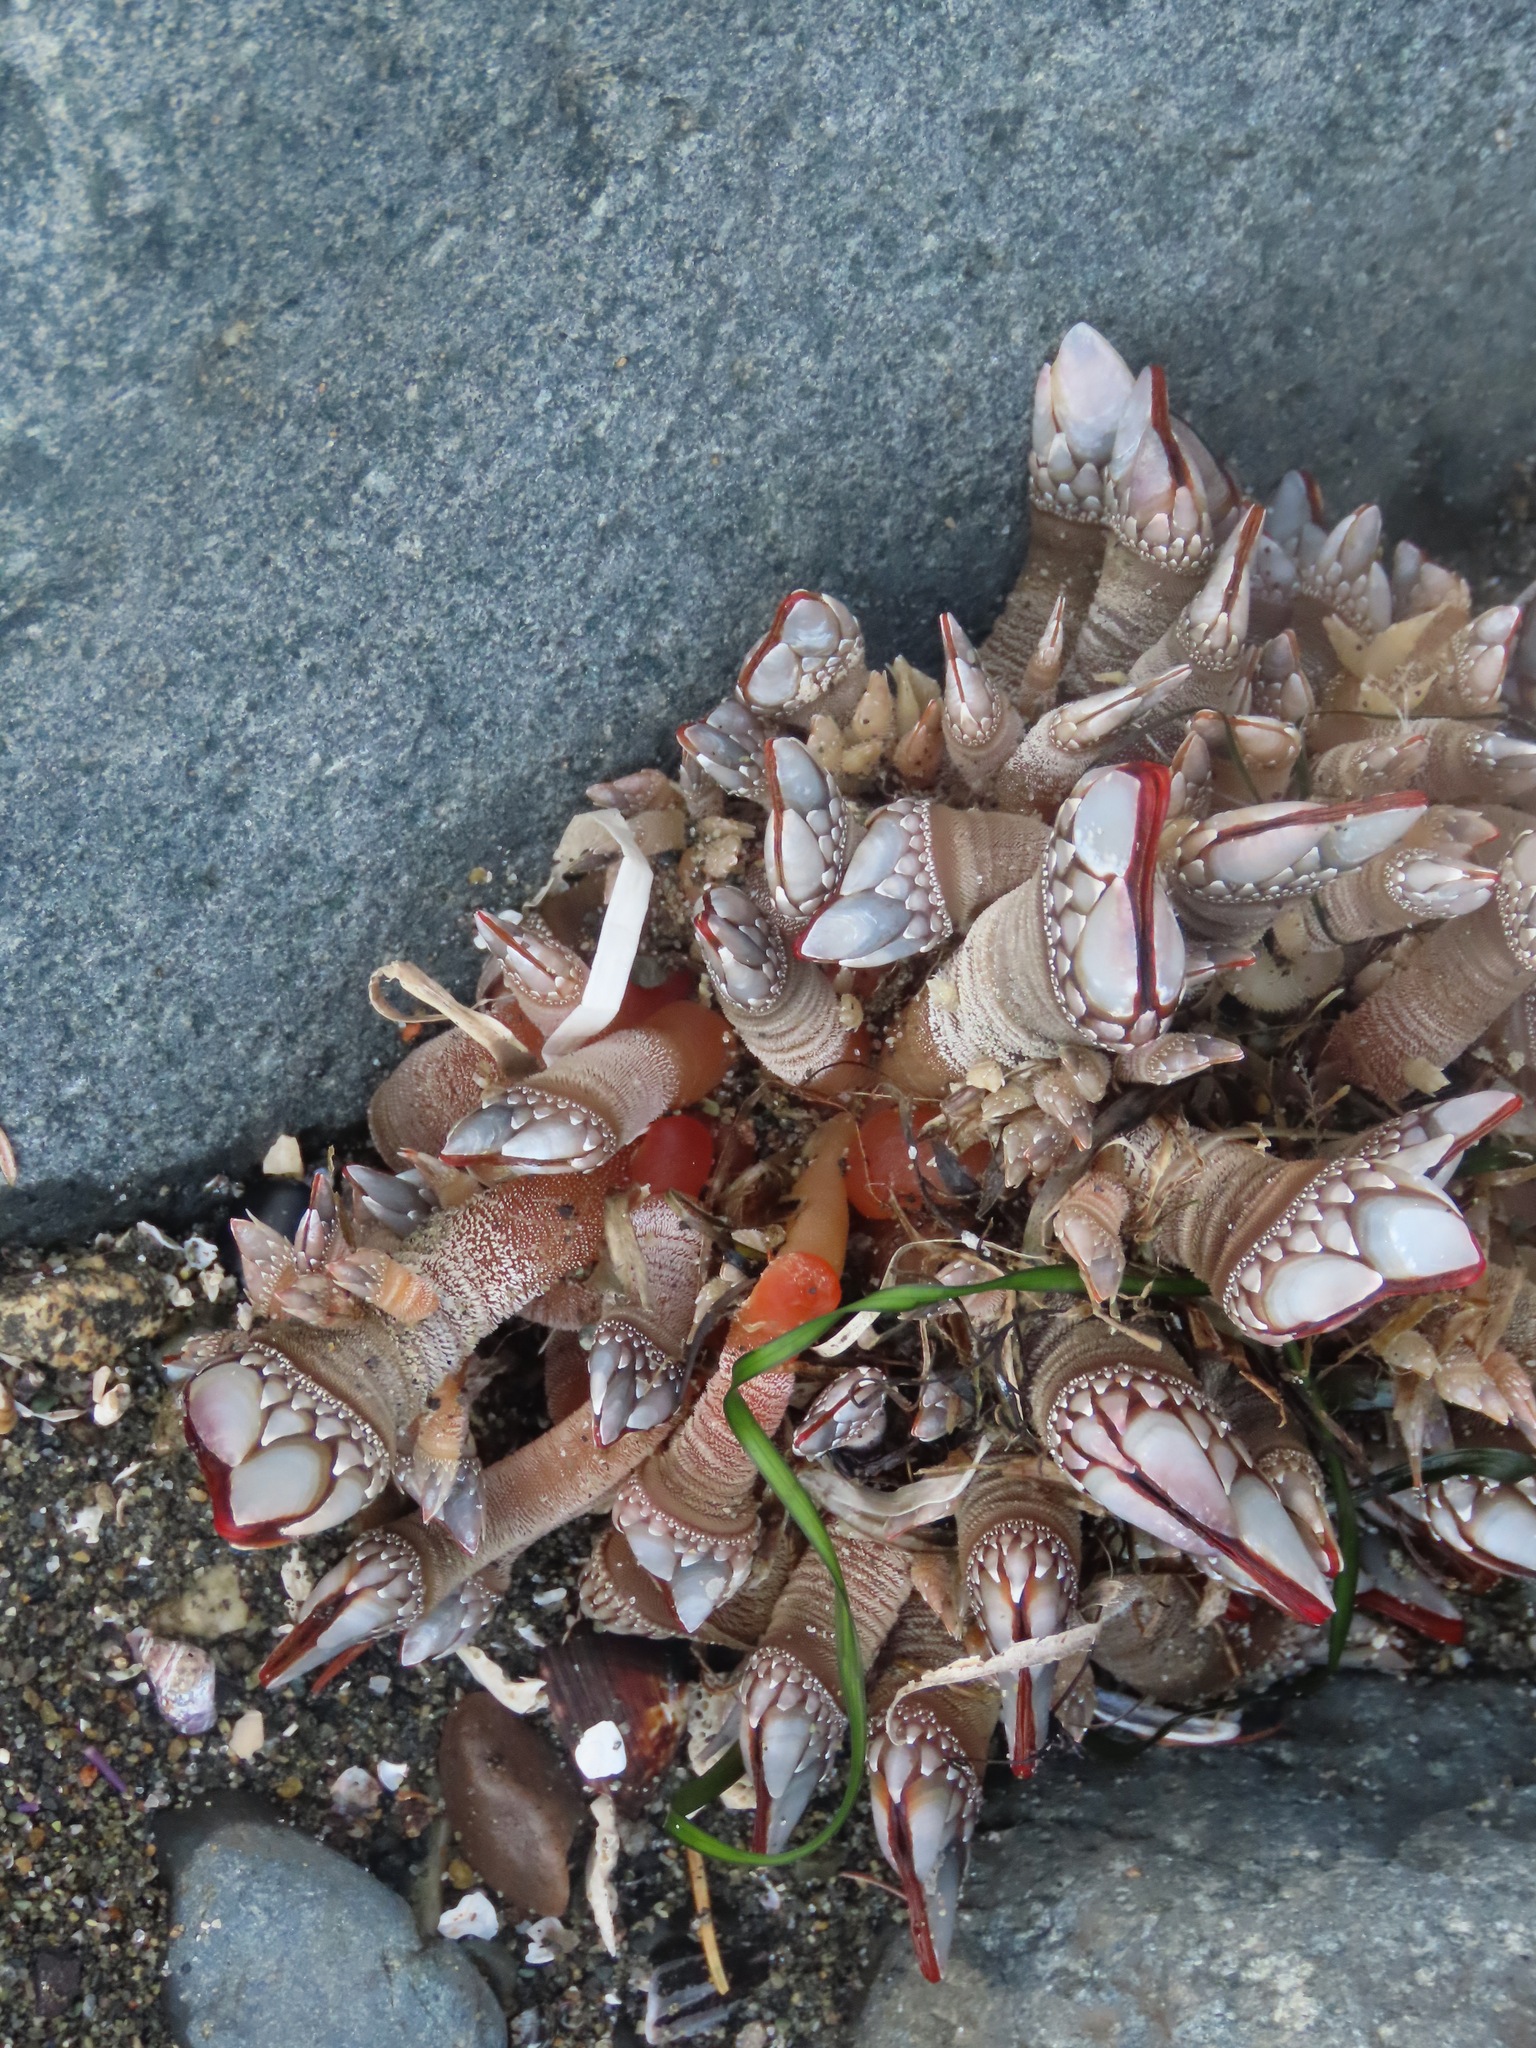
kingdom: Animalia
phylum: Arthropoda
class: Maxillopoda
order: Pedunculata
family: Pollicipedidae
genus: Pollicipes
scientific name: Pollicipes polymerus
